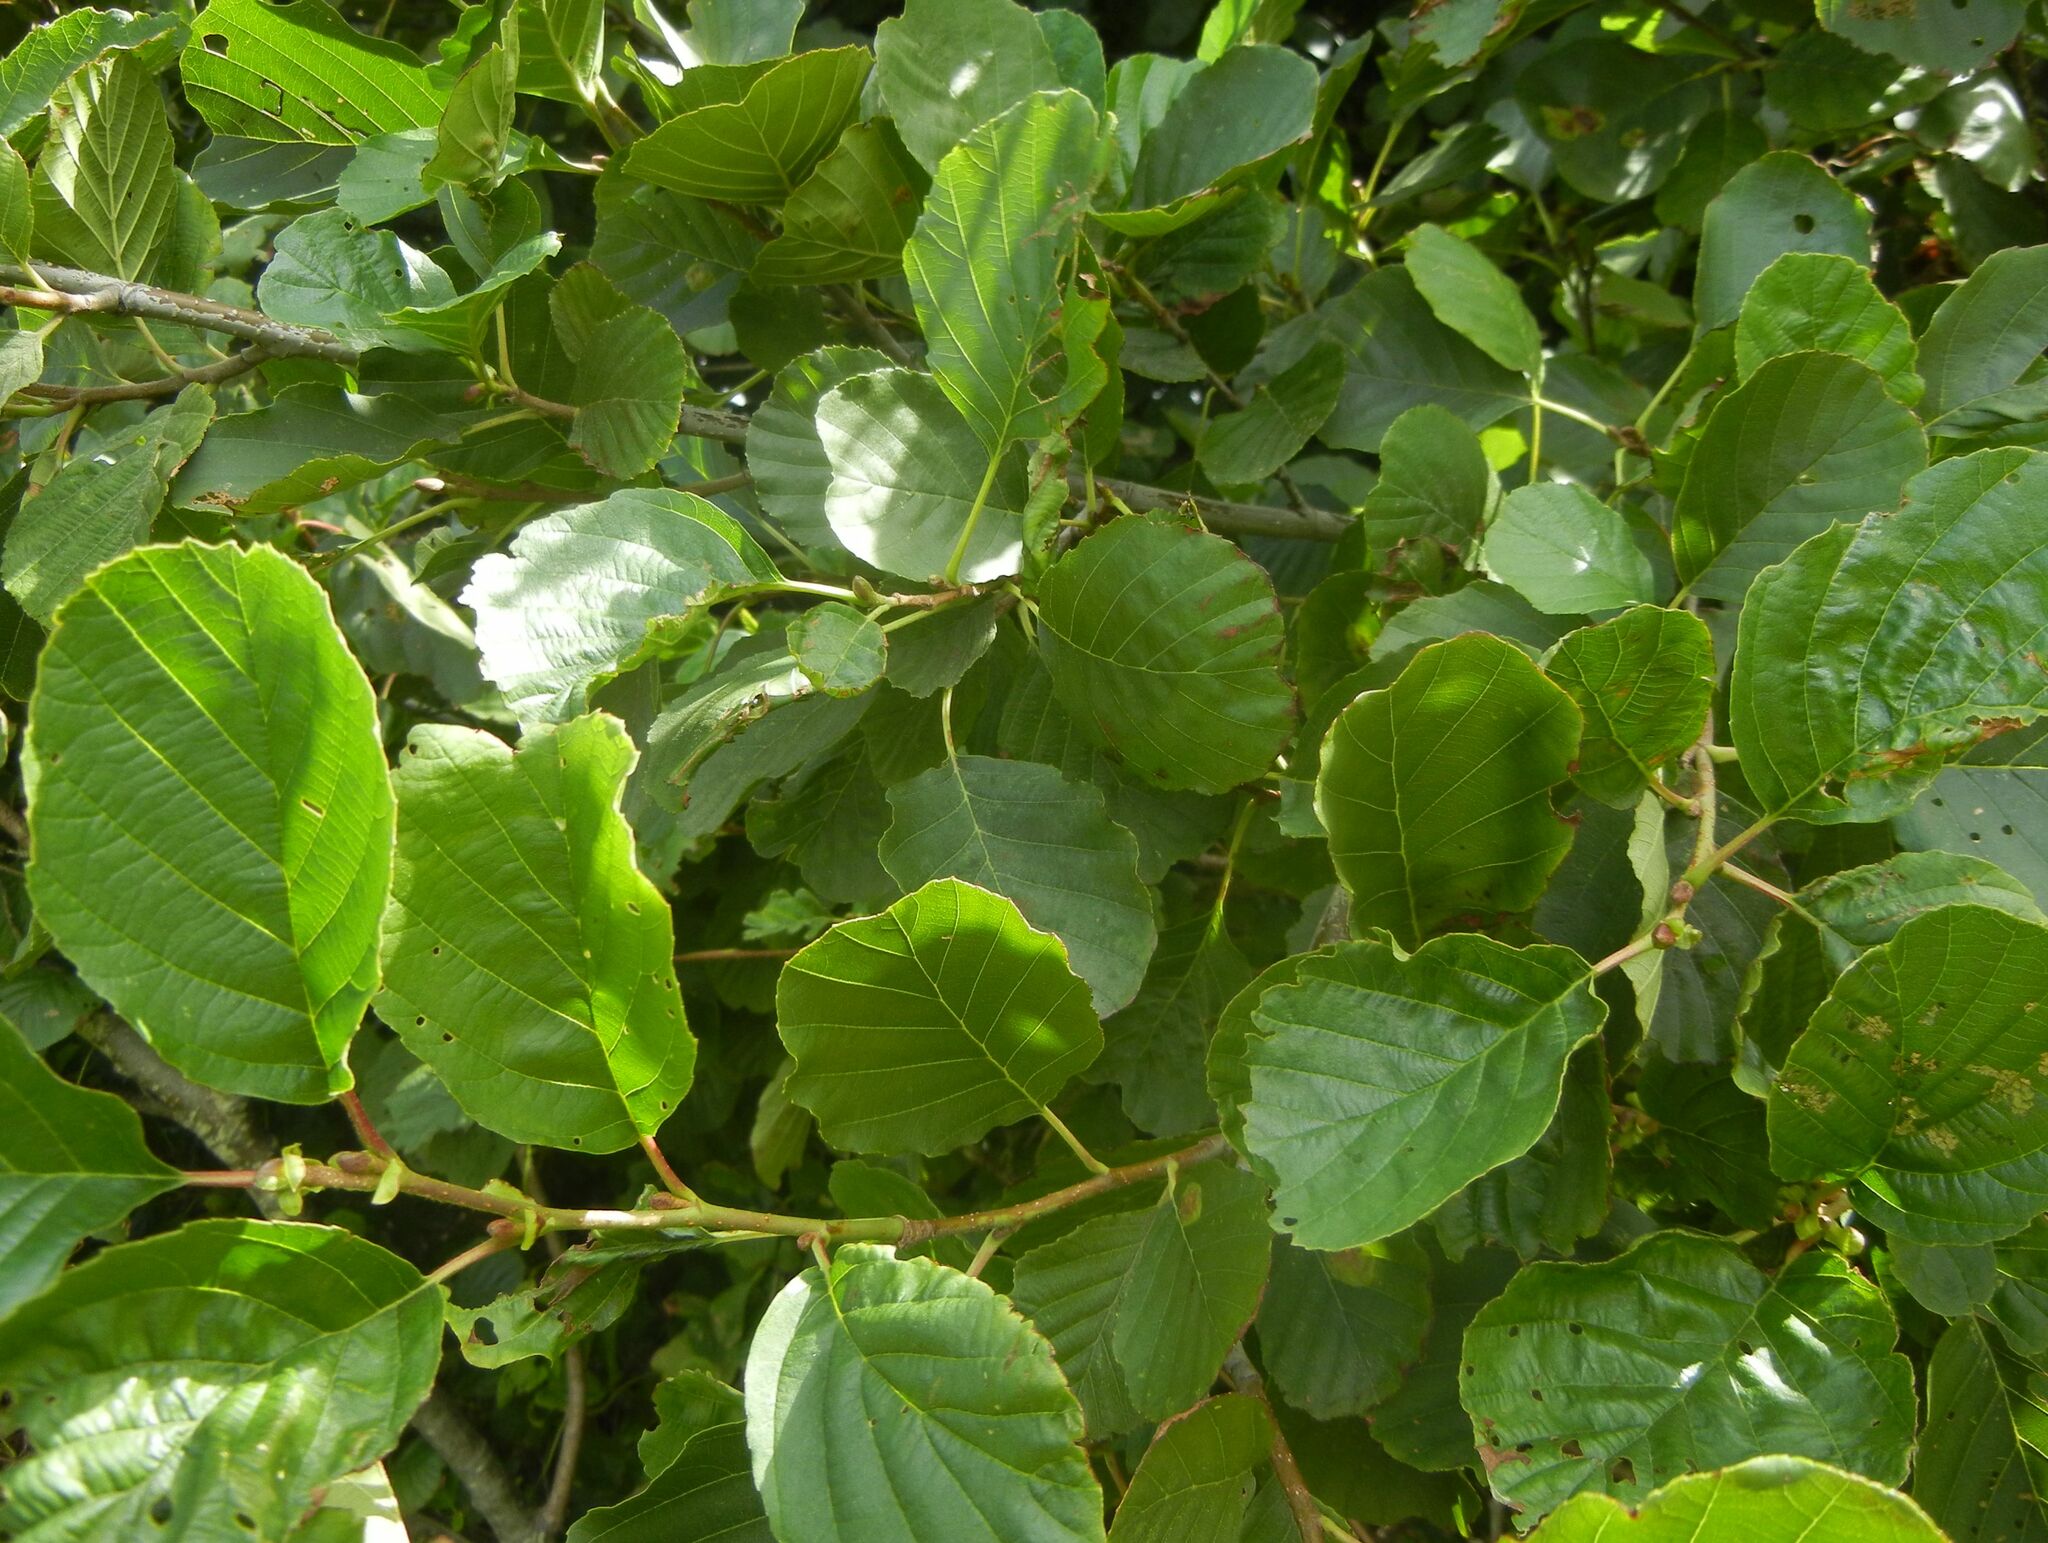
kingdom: Plantae
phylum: Tracheophyta
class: Magnoliopsida
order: Fagales
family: Betulaceae
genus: Alnus
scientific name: Alnus glutinosa
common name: Black alder
